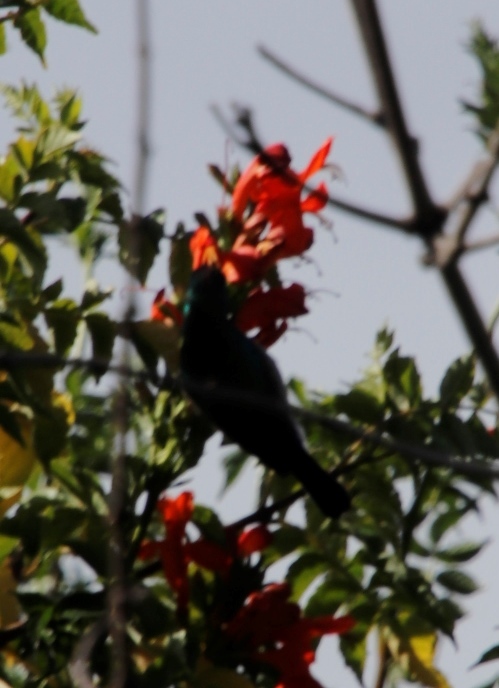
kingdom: Animalia
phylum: Chordata
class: Aves
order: Passeriformes
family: Nectariniidae
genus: Cinnyris
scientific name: Cinnyris chalybeus
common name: Southern double-collared sunbird
